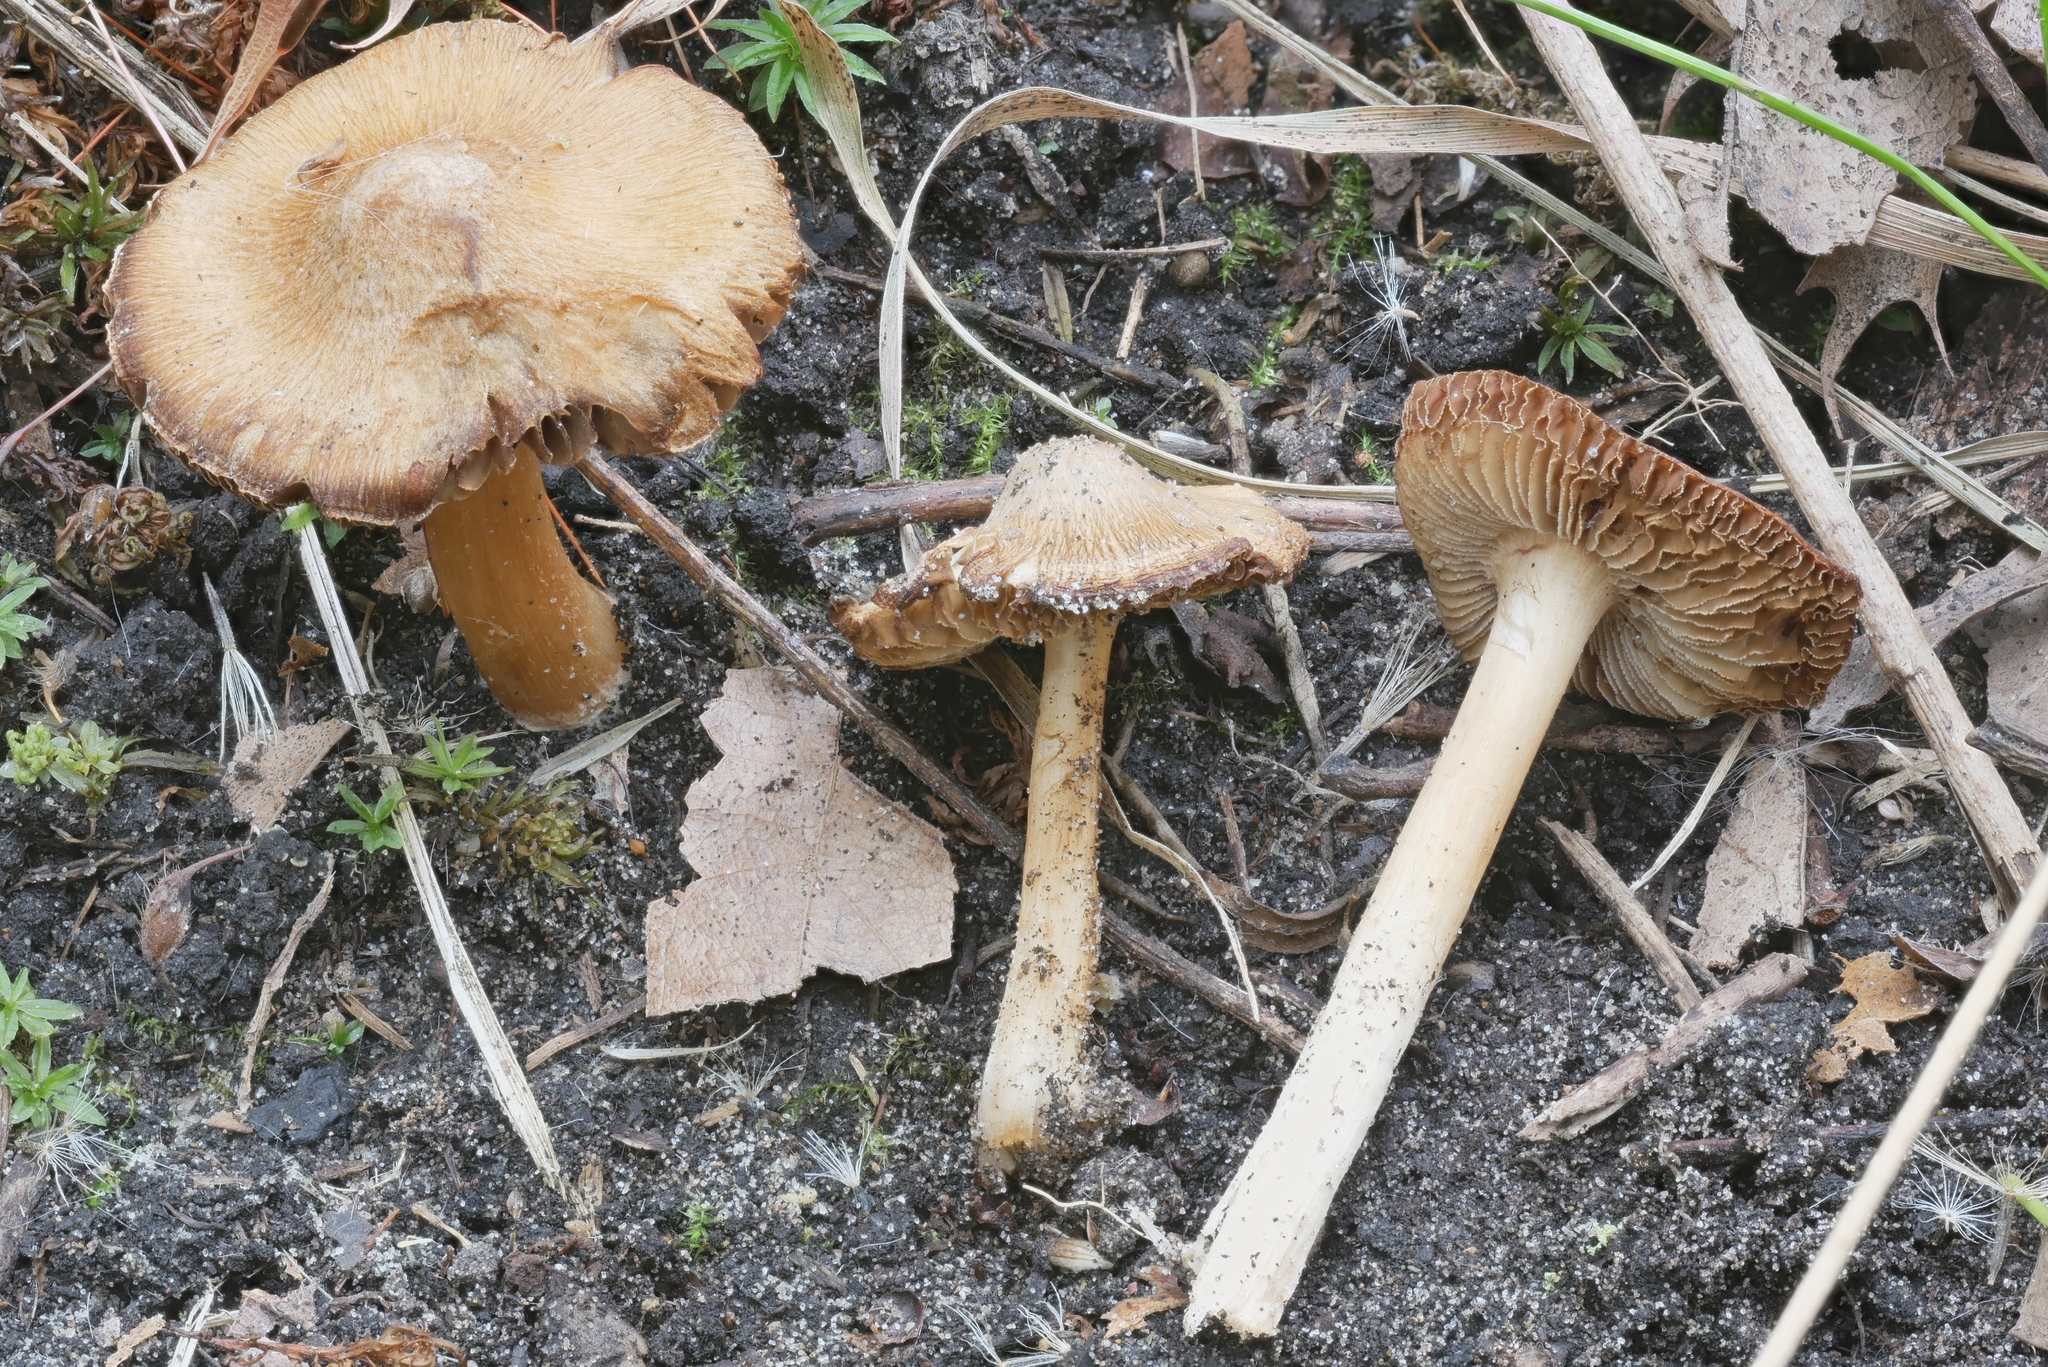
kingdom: Fungi
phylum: Basidiomycota
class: Agaricomycetes
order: Agaricales
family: Inocybaceae
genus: Inosperma
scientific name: Inosperma lanatodiscum
